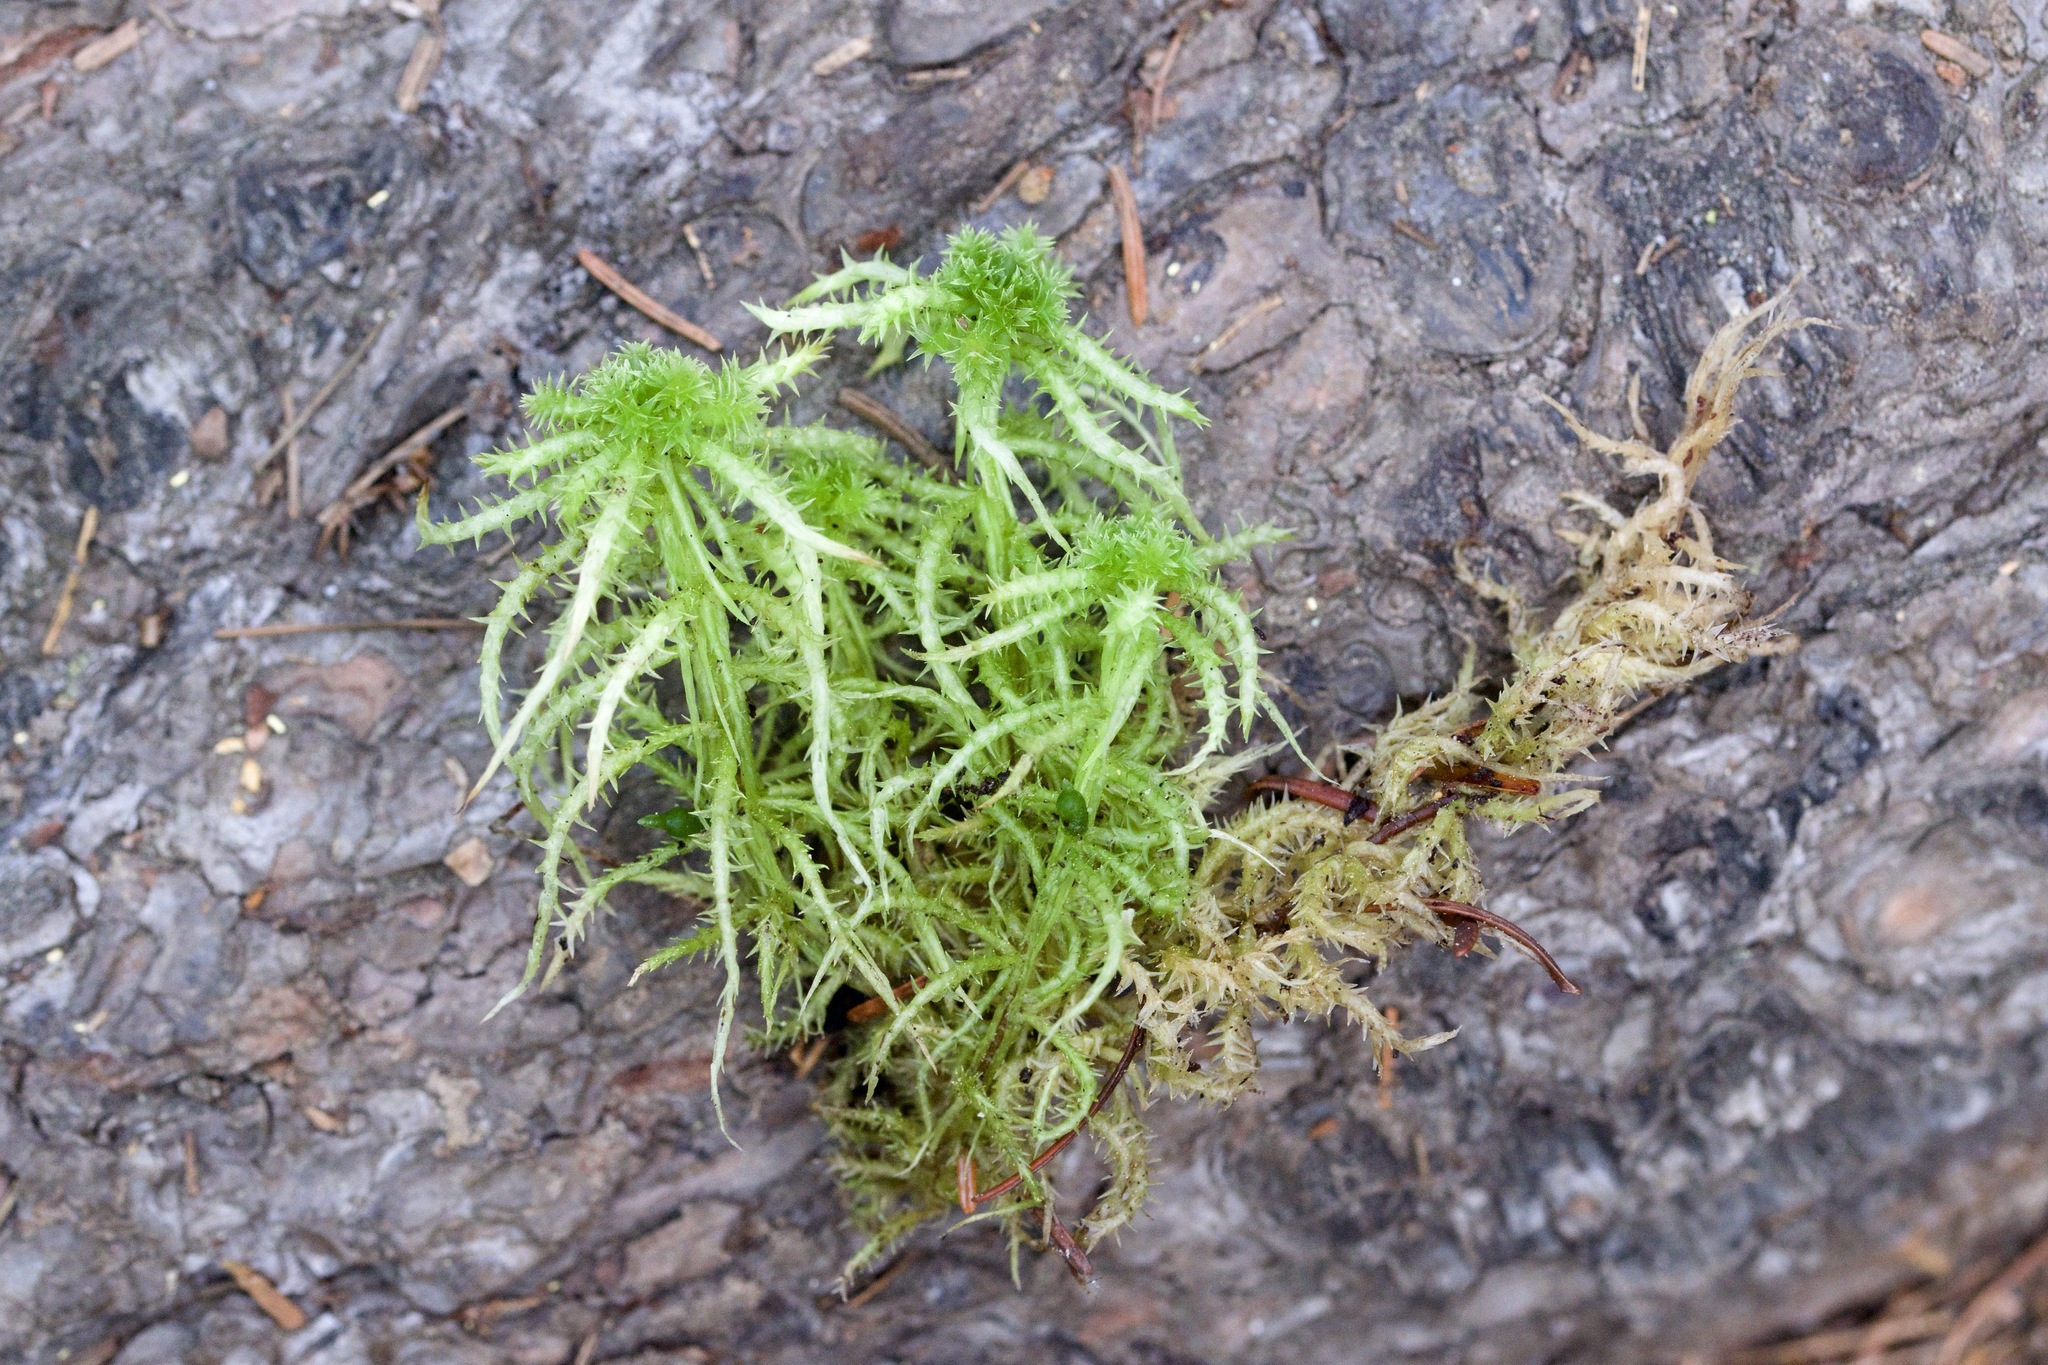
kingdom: Plantae
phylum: Bryophyta
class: Sphagnopsida
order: Sphagnales
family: Sphagnaceae
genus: Sphagnum
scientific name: Sphagnum squarrosum
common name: Shaggy peat moss
